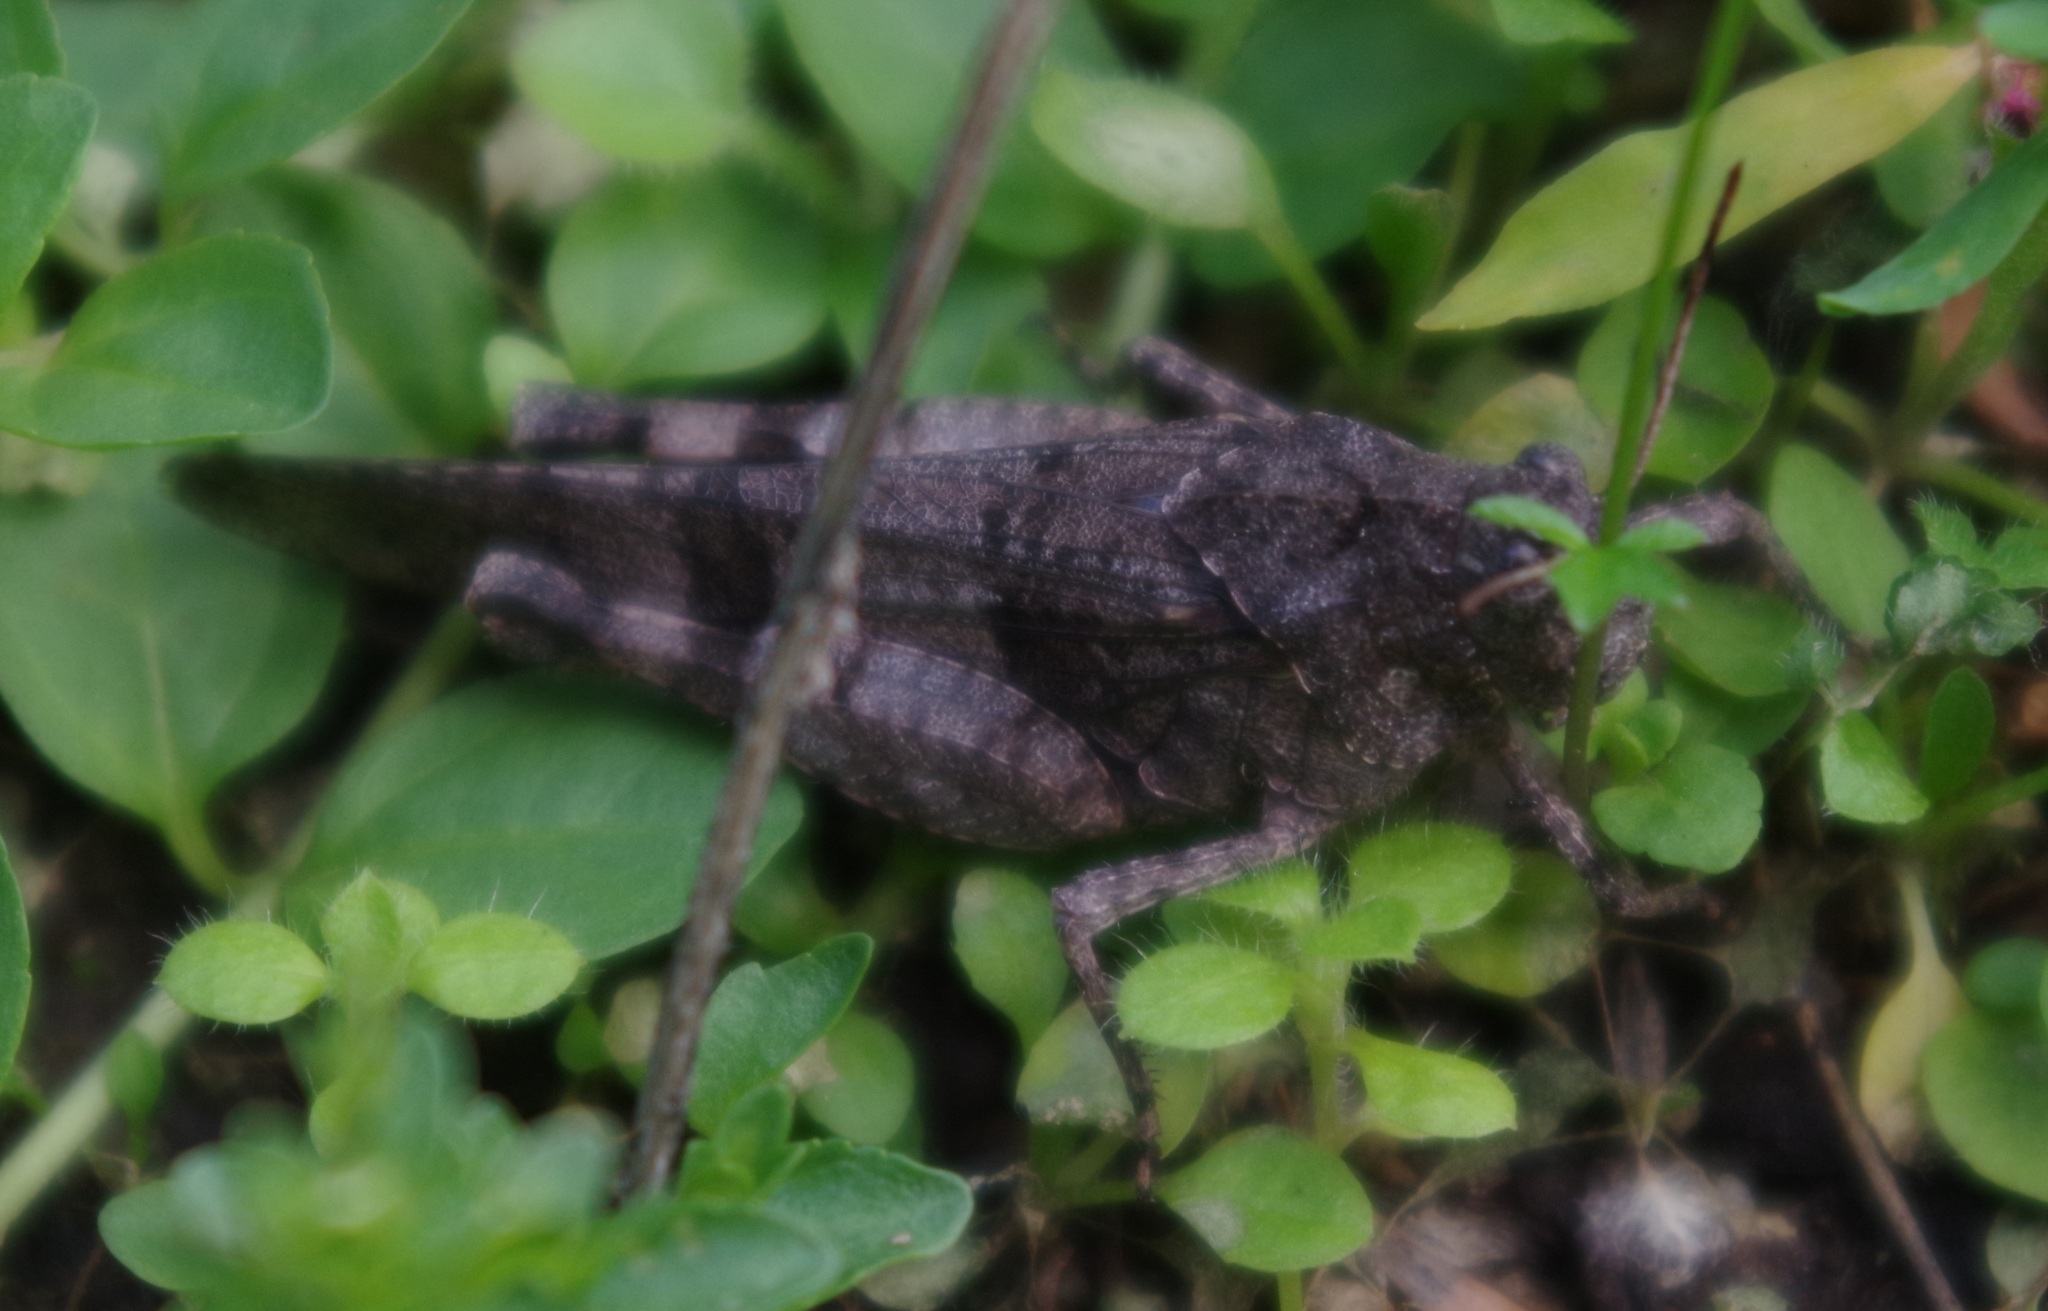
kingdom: Animalia
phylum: Arthropoda
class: Insecta
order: Orthoptera
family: Acrididae
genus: Oedipoda
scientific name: Oedipoda caerulescens
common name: Blue-winged grasshopper
